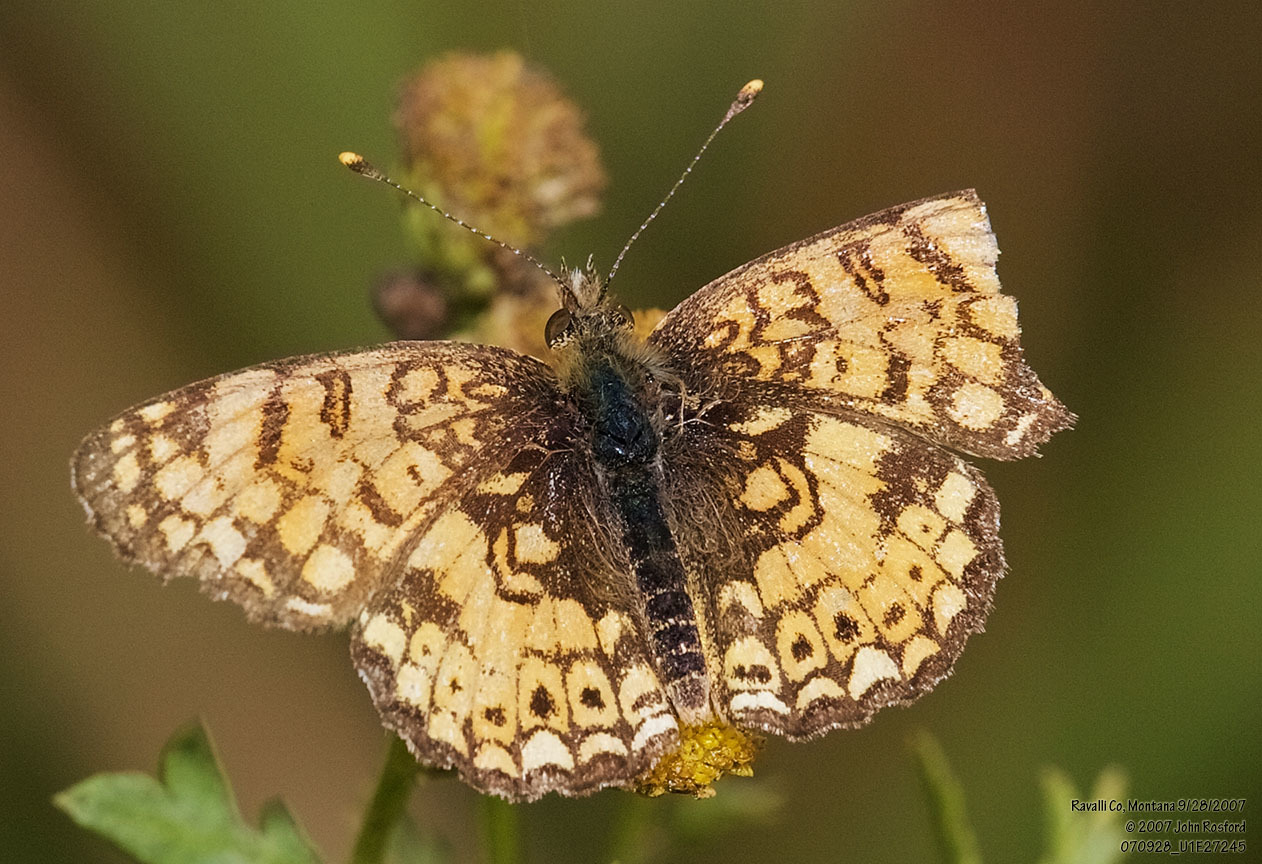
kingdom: Animalia
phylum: Arthropoda
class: Insecta
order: Lepidoptera
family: Nymphalidae
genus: Eresia
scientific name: Eresia aveyrona
